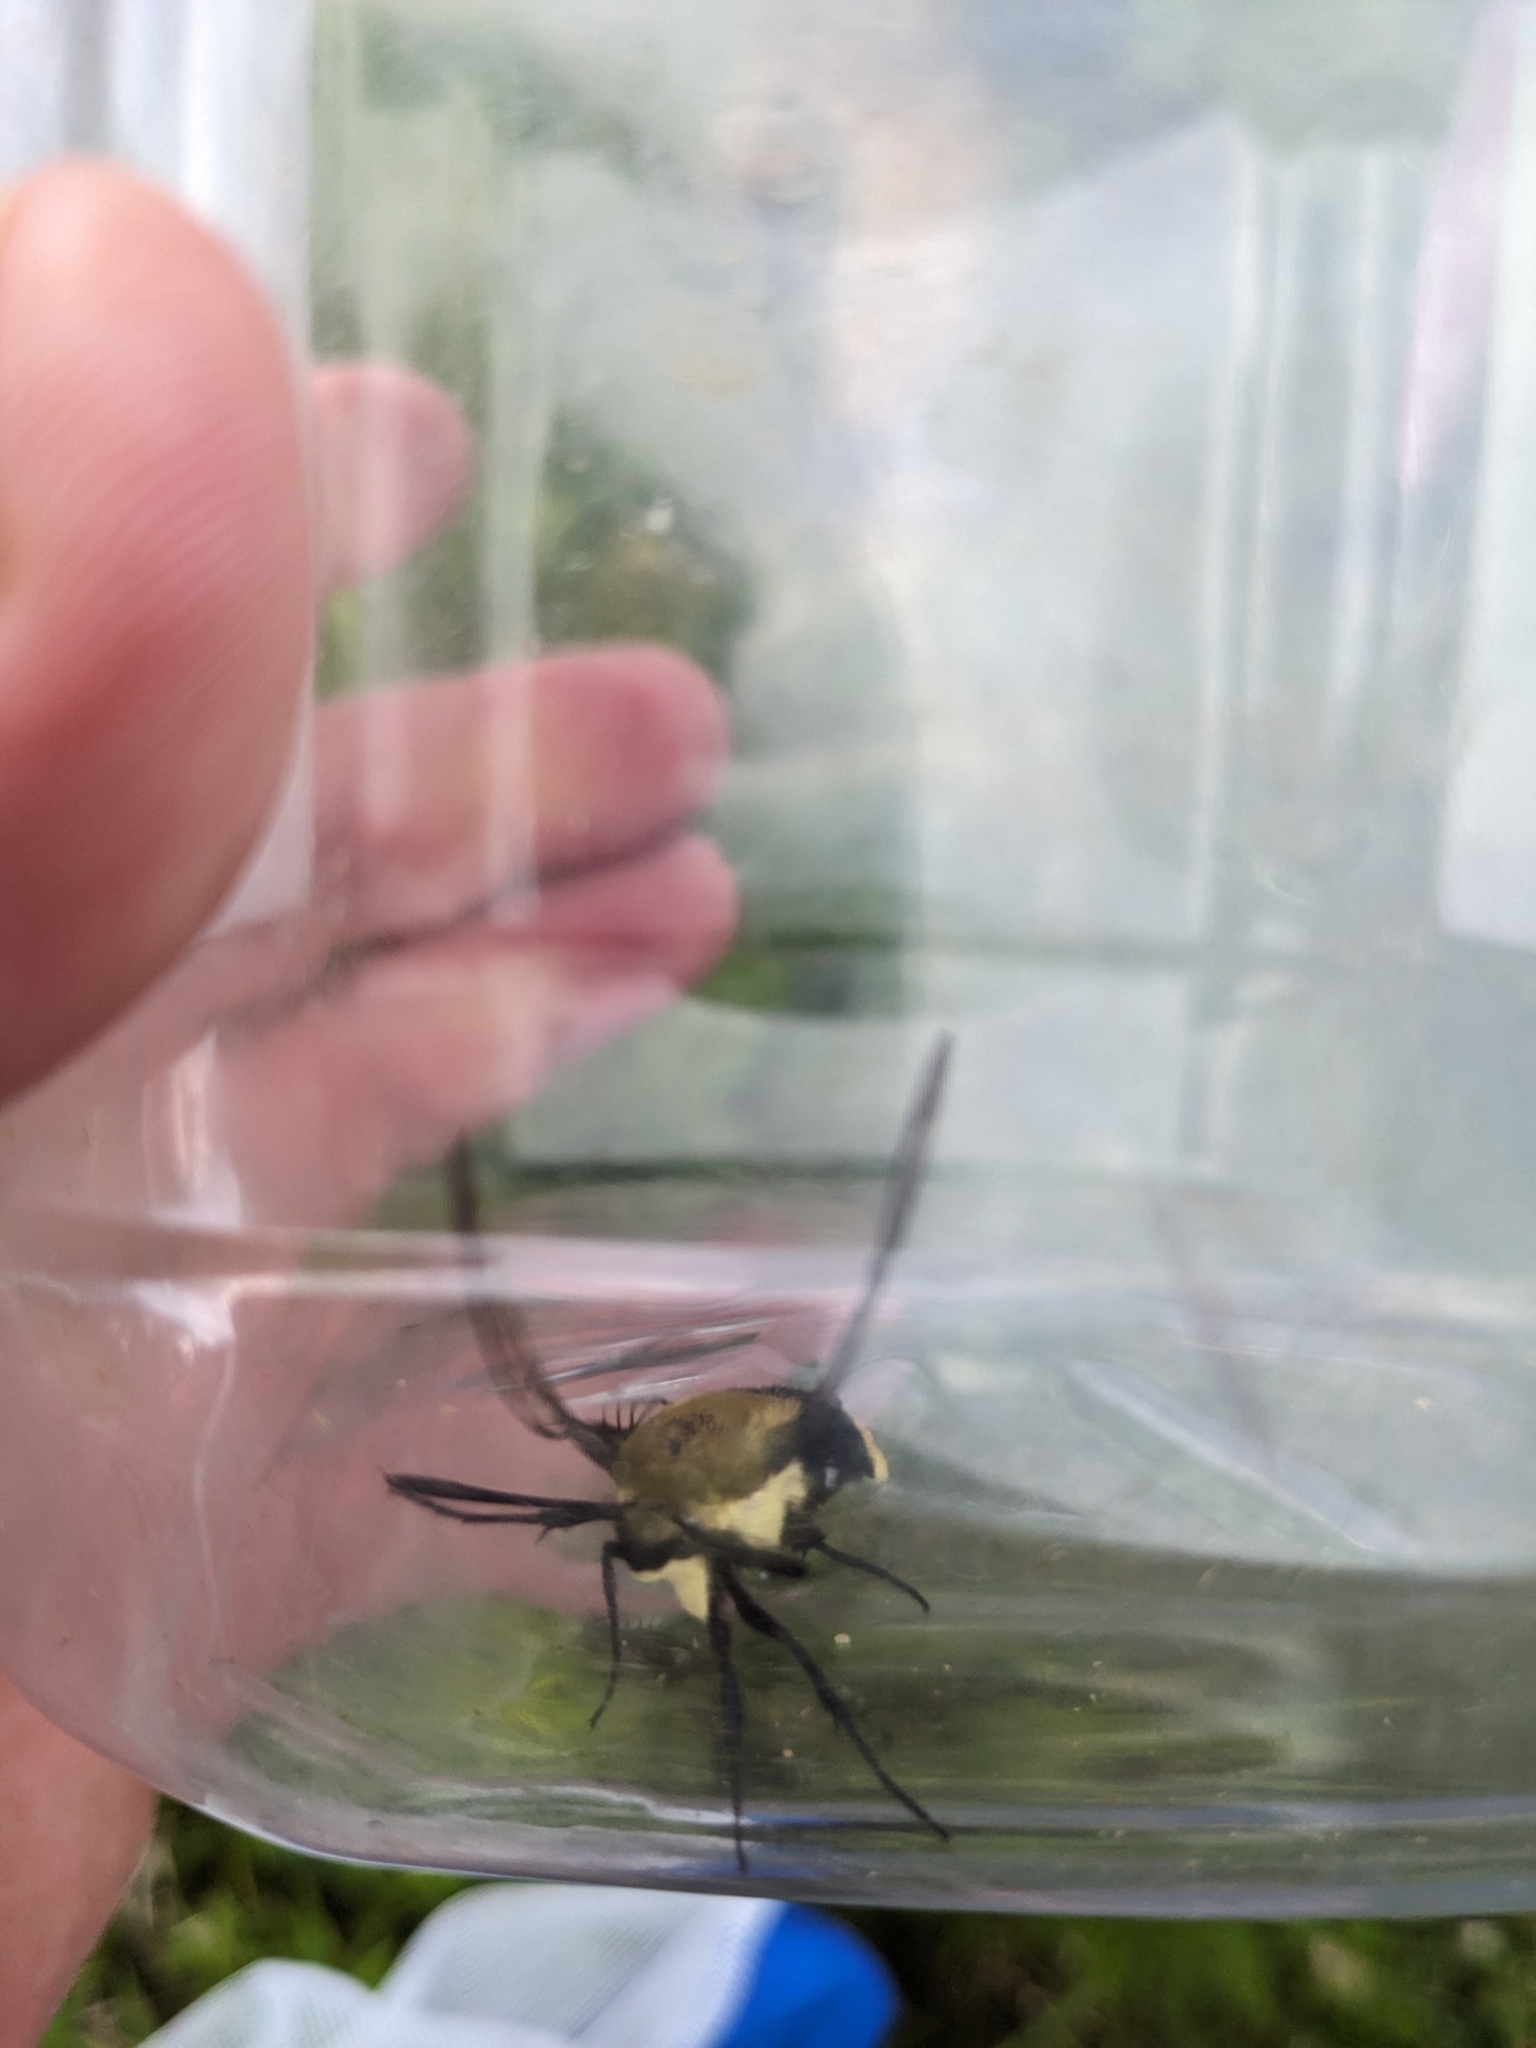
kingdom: Animalia
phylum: Arthropoda
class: Insecta
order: Lepidoptera
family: Sphingidae
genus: Hemaris
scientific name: Hemaris diffinis
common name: Bumblebee moth
